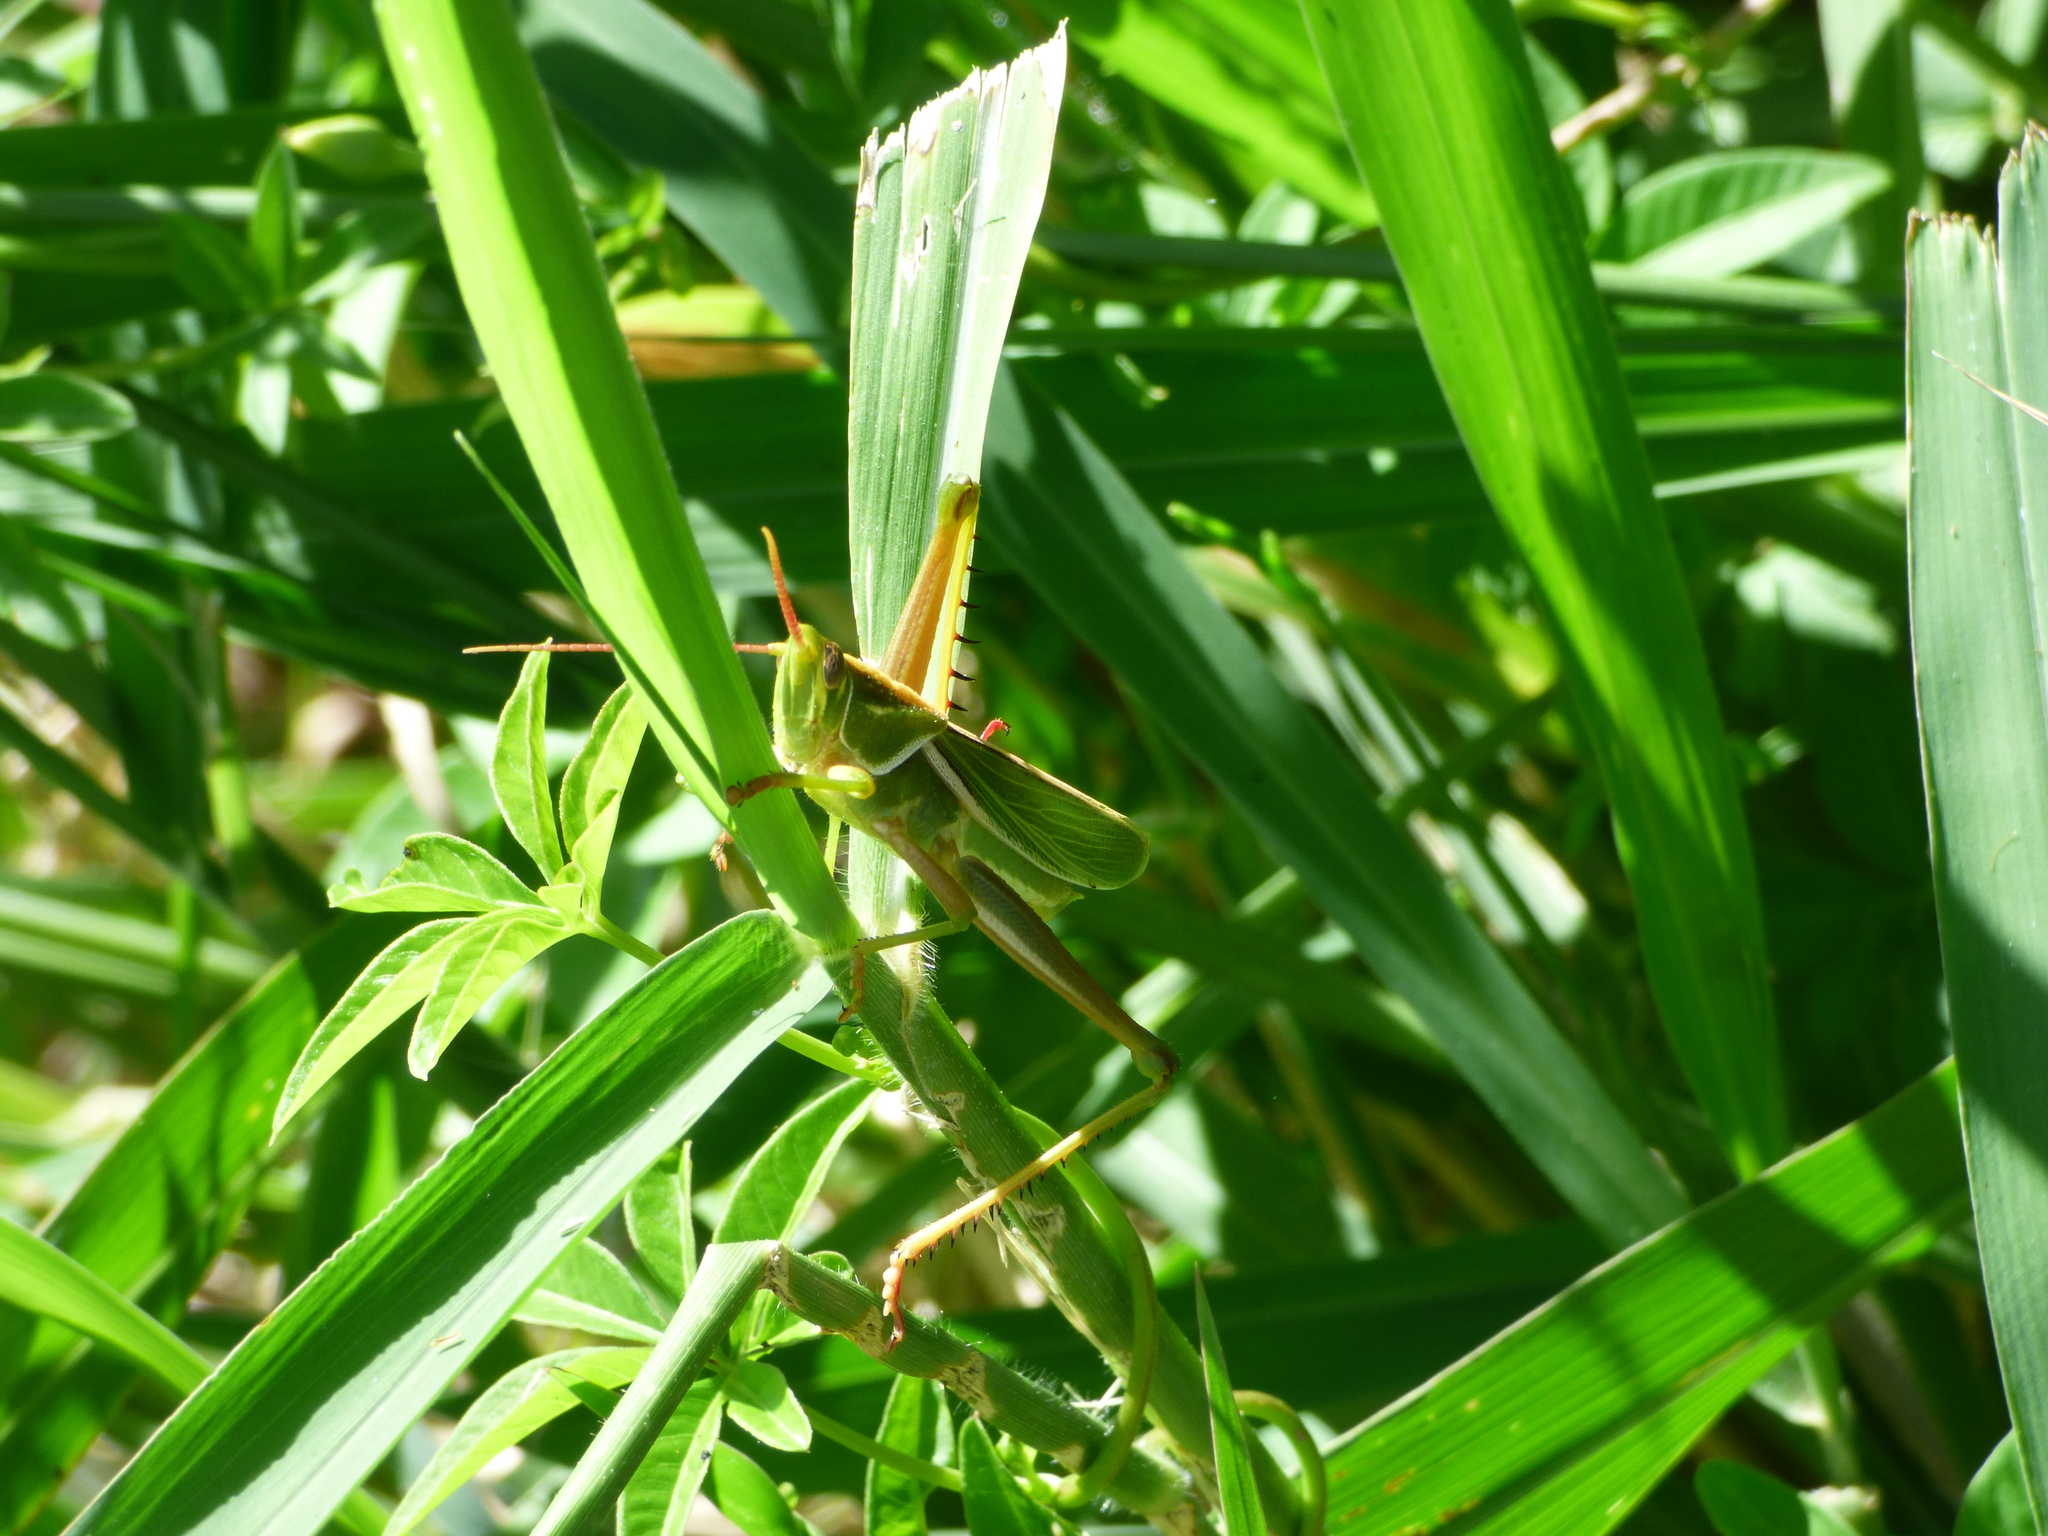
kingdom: Animalia
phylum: Arthropoda
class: Insecta
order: Orthoptera
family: Romaleidae
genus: Staleochlora
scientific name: Staleochlora viridicata
